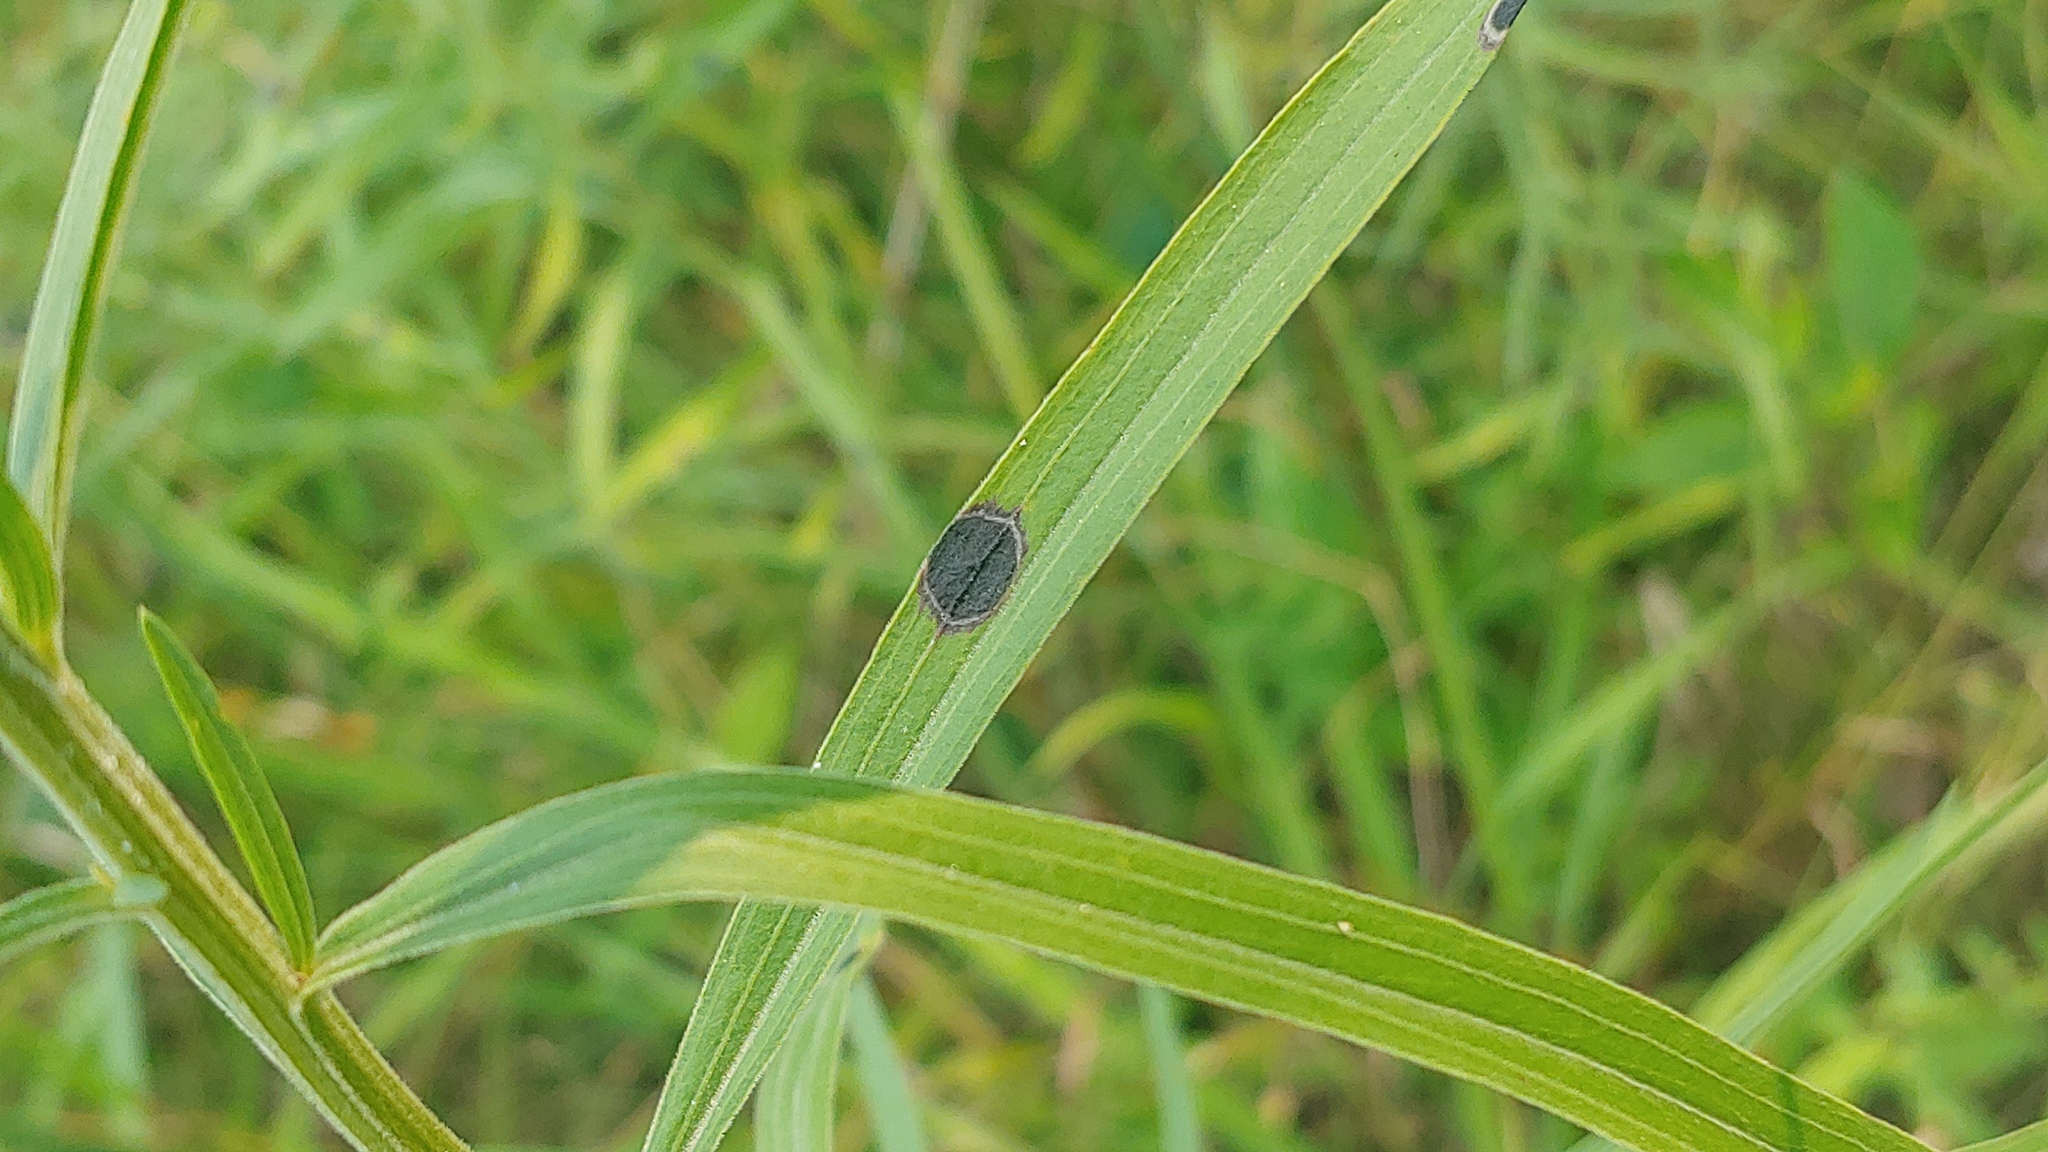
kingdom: Animalia
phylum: Arthropoda
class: Insecta
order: Diptera
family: Cecidomyiidae
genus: Asteromyia
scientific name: Asteromyia euthamiae
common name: Euthamia leaf gall midge
